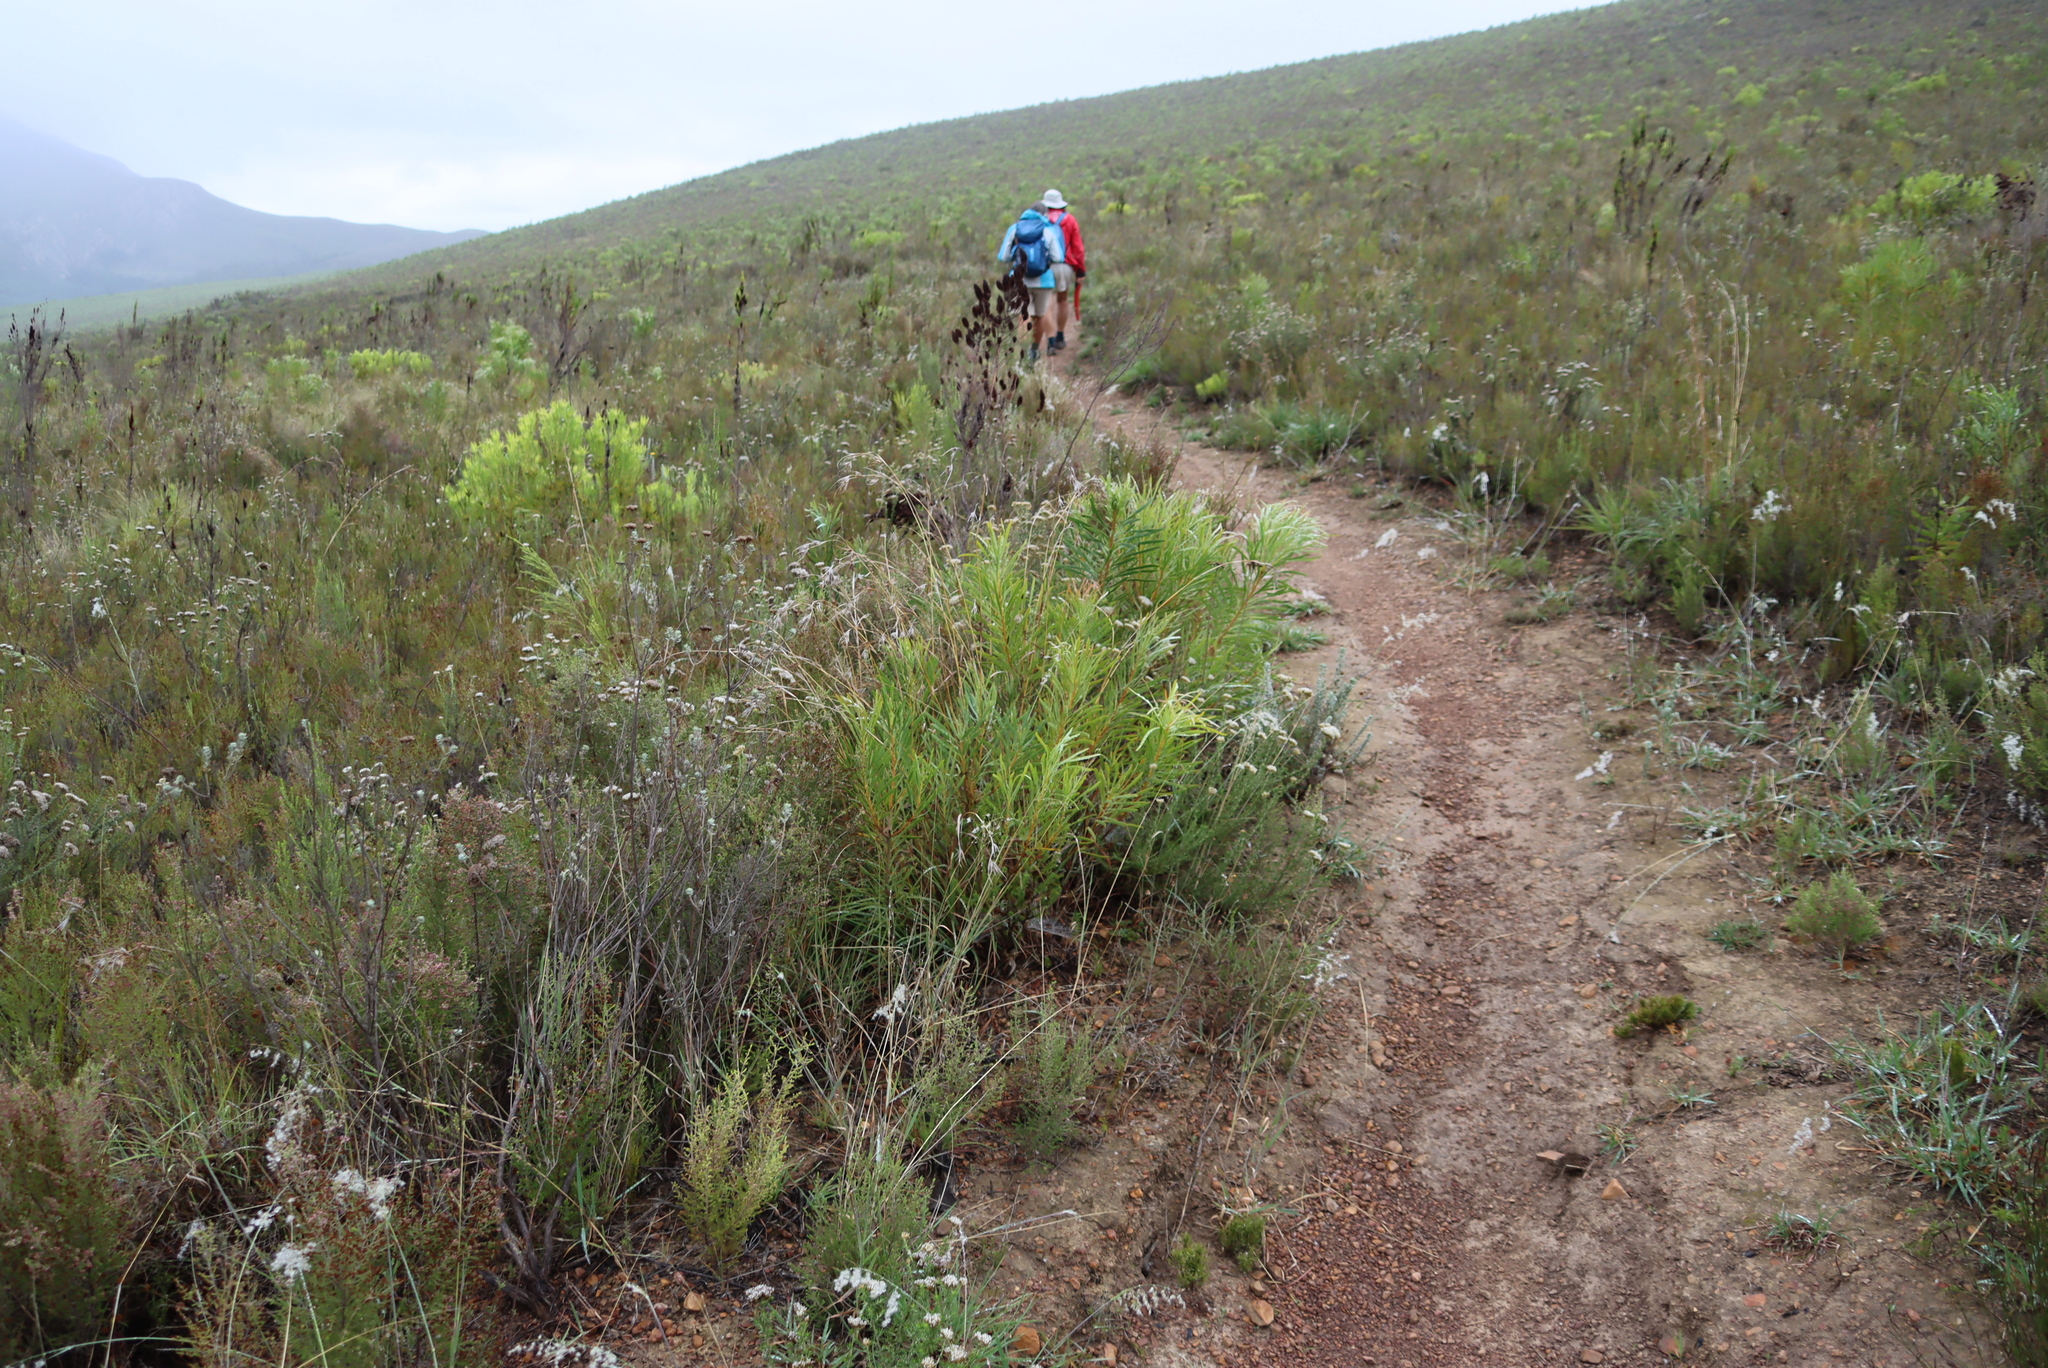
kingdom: Plantae
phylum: Tracheophyta
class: Magnoliopsida
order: Proteales
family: Proteaceae
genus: Protea
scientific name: Protea repens
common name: Sugarbush
